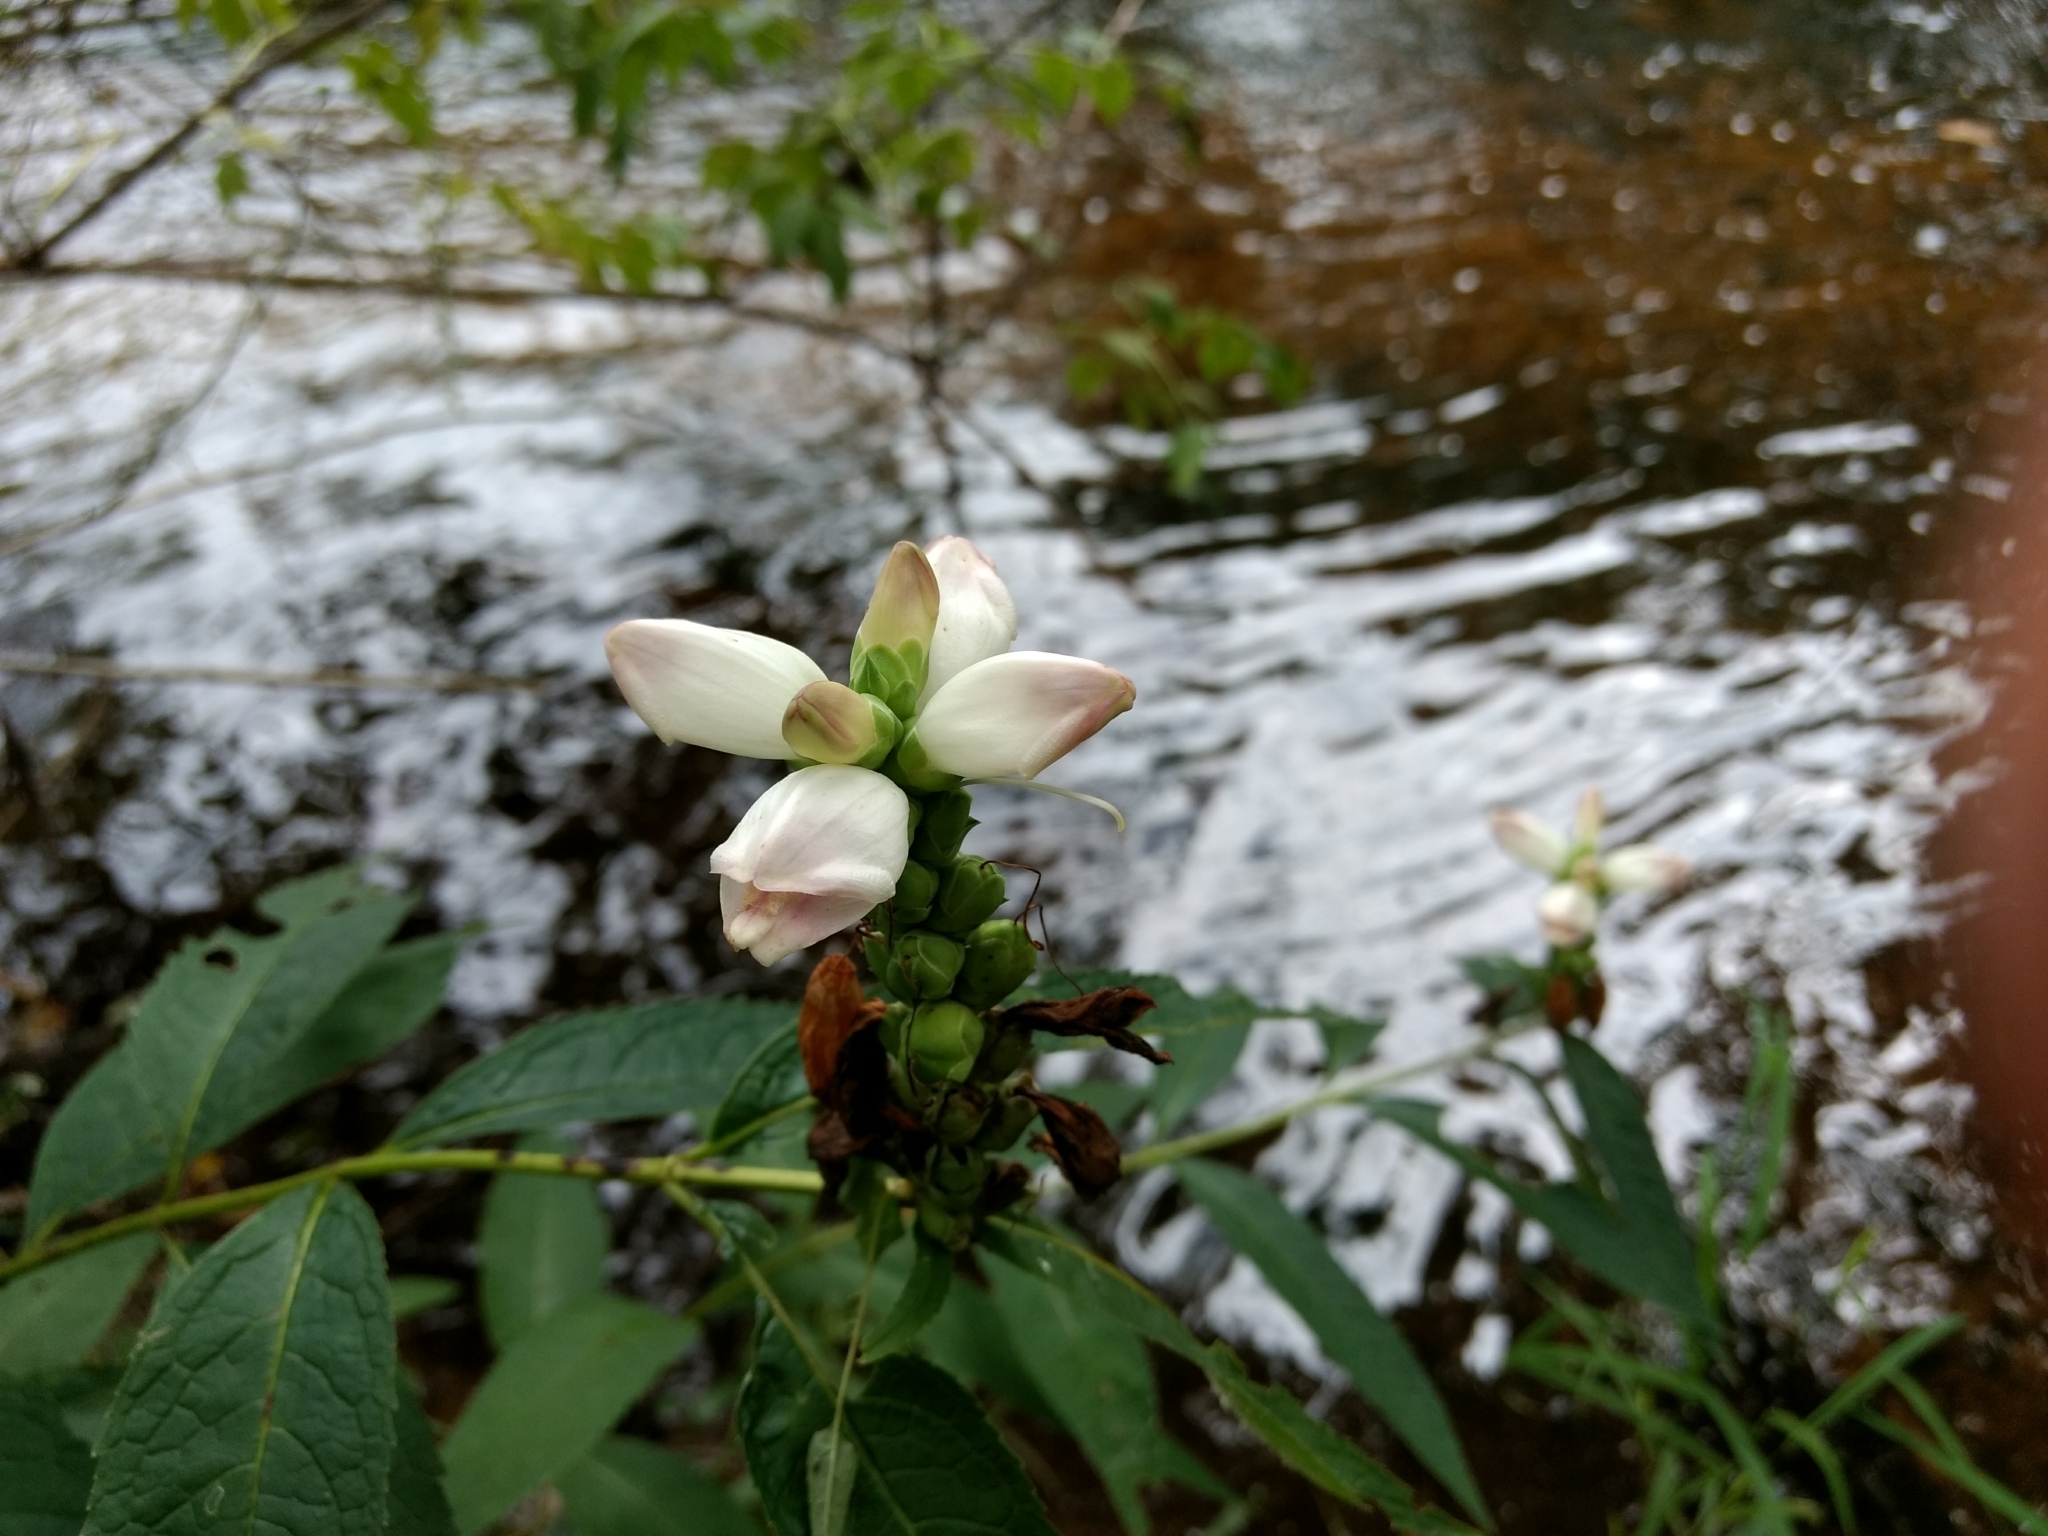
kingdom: Plantae
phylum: Tracheophyta
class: Magnoliopsida
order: Lamiales
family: Plantaginaceae
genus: Chelone
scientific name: Chelone glabra
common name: Snakehead
